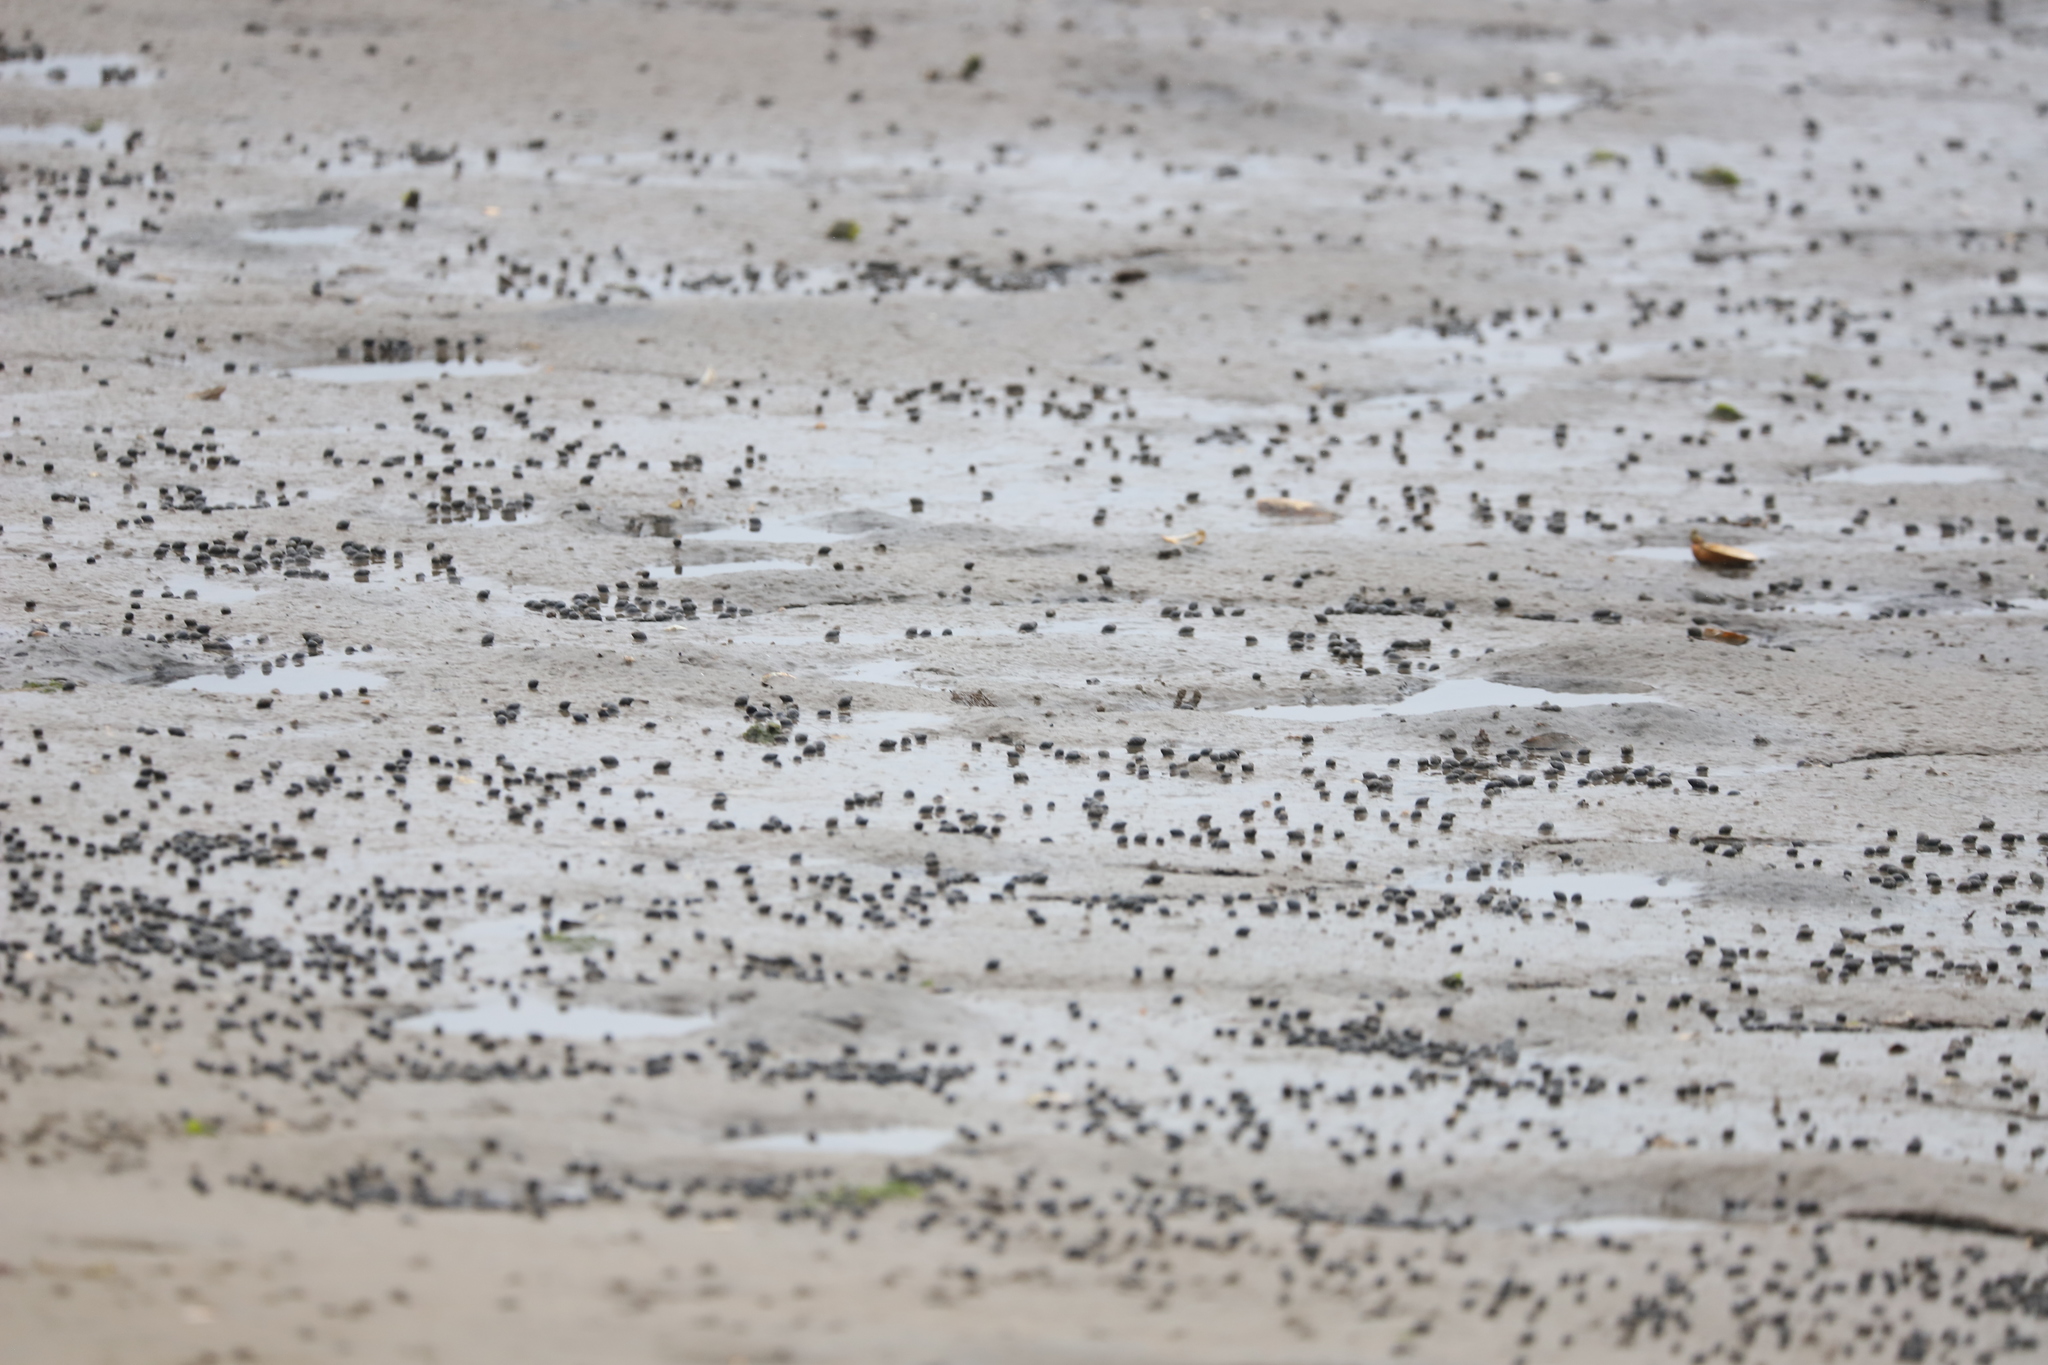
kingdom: Animalia
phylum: Mollusca
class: Gastropoda
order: Neogastropoda
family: Nassariidae
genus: Ilyanassa
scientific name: Ilyanassa obsoleta
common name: Eastern mudsnail
